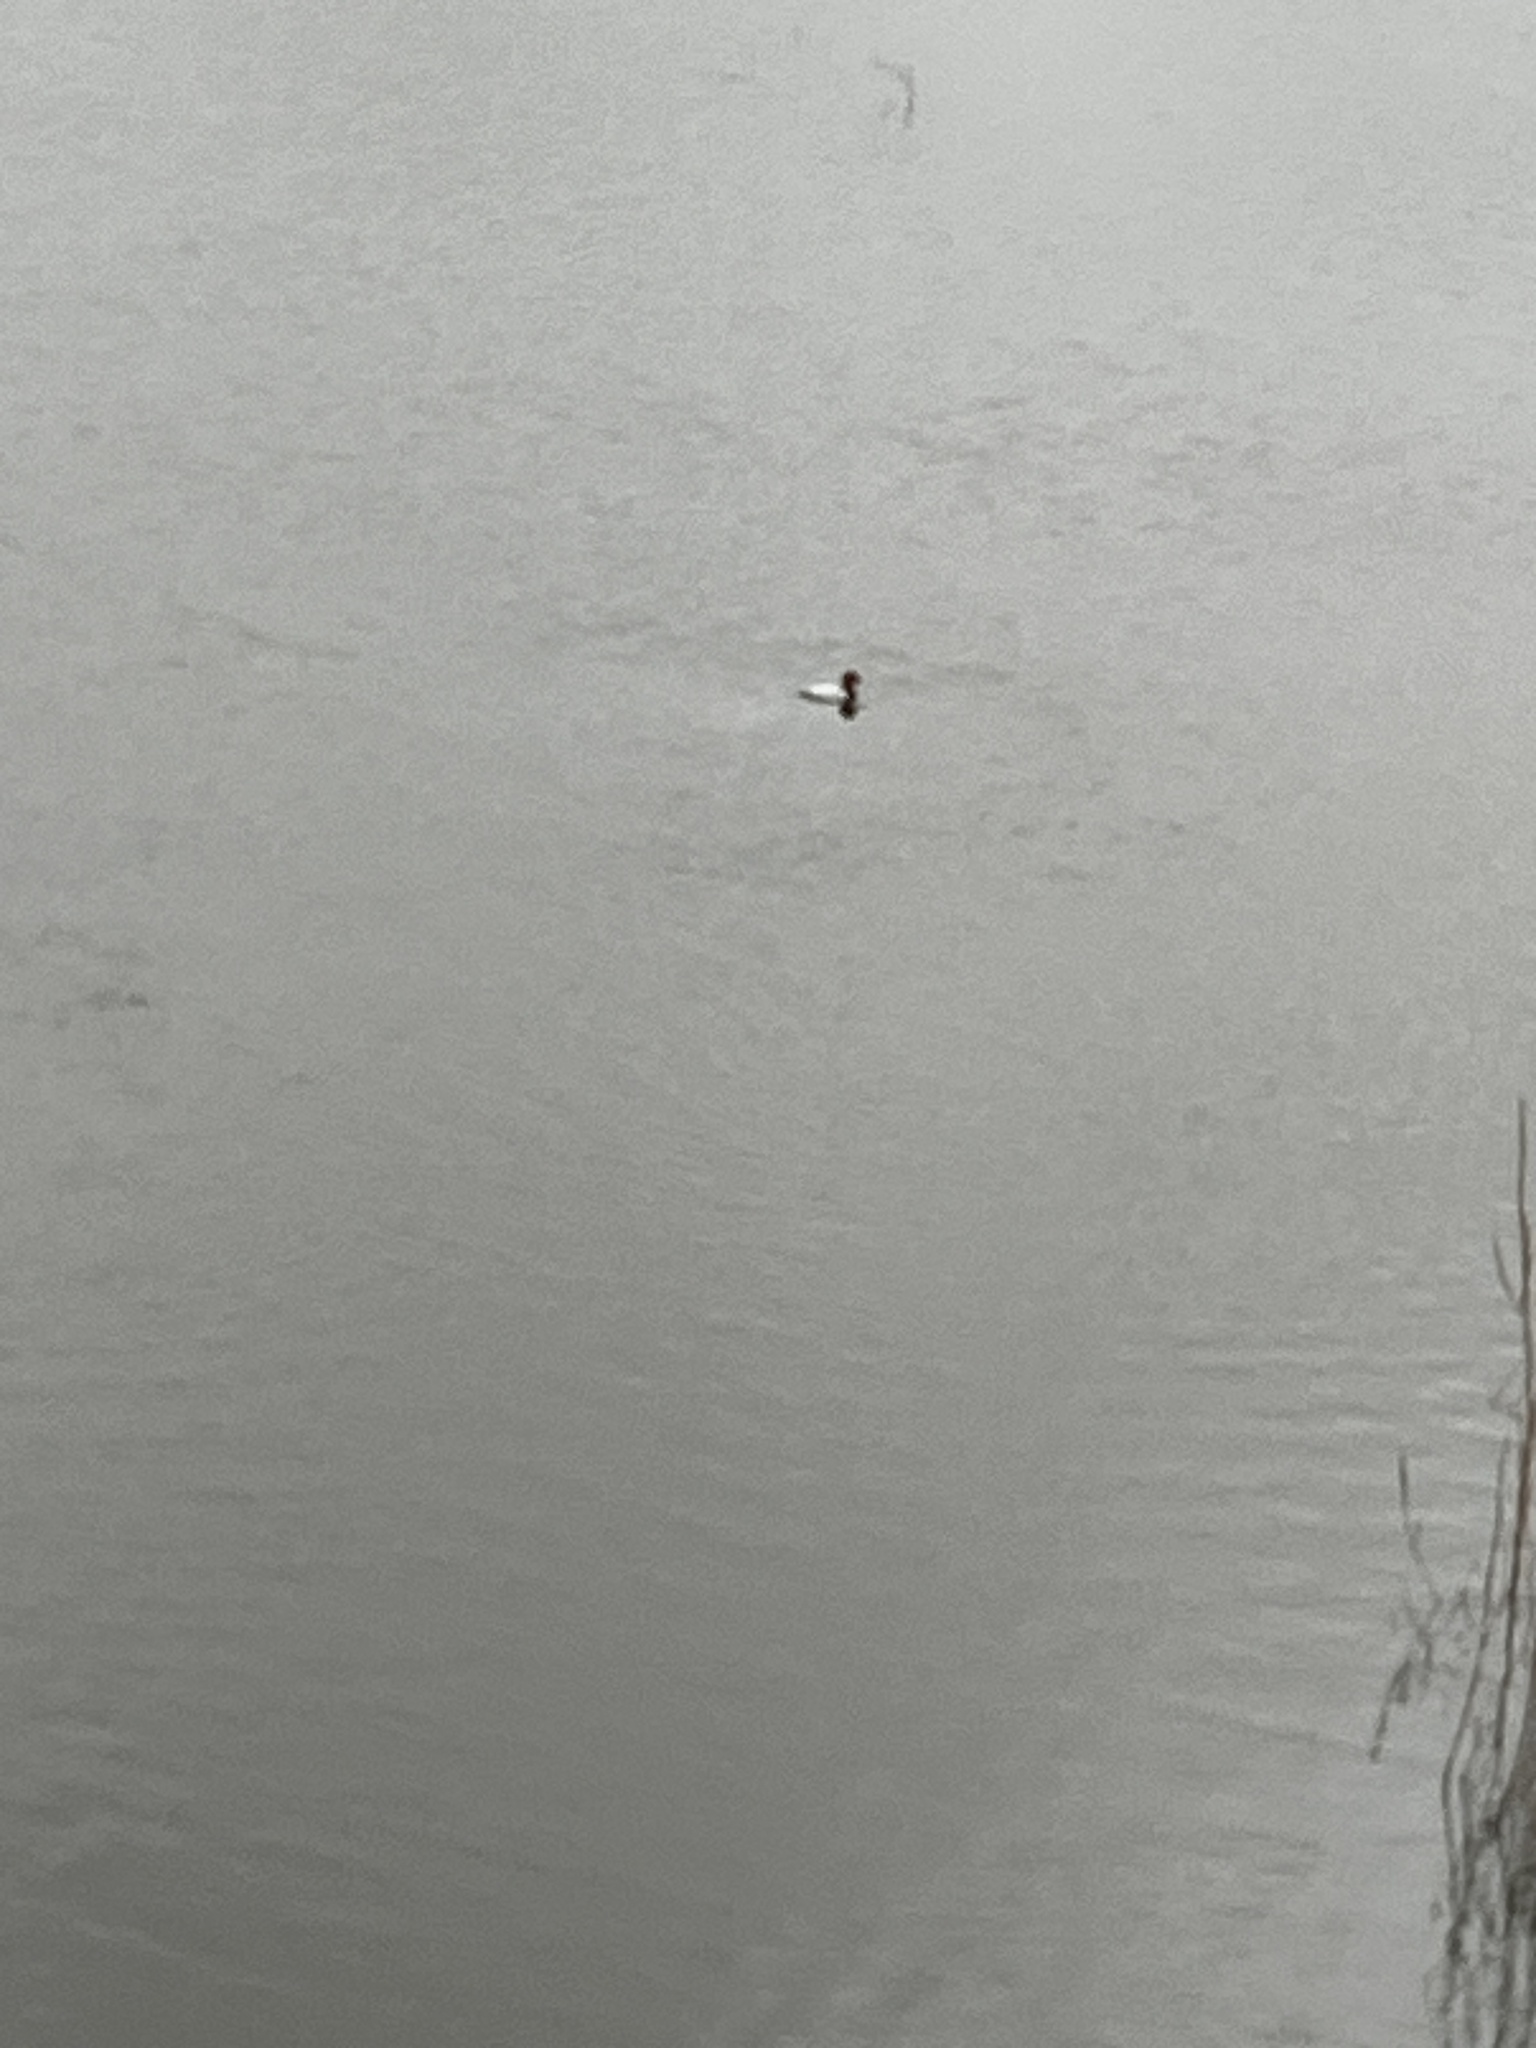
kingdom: Animalia
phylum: Chordata
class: Aves
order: Anseriformes
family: Anatidae
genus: Aythya
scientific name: Aythya ferina
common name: Common pochard
